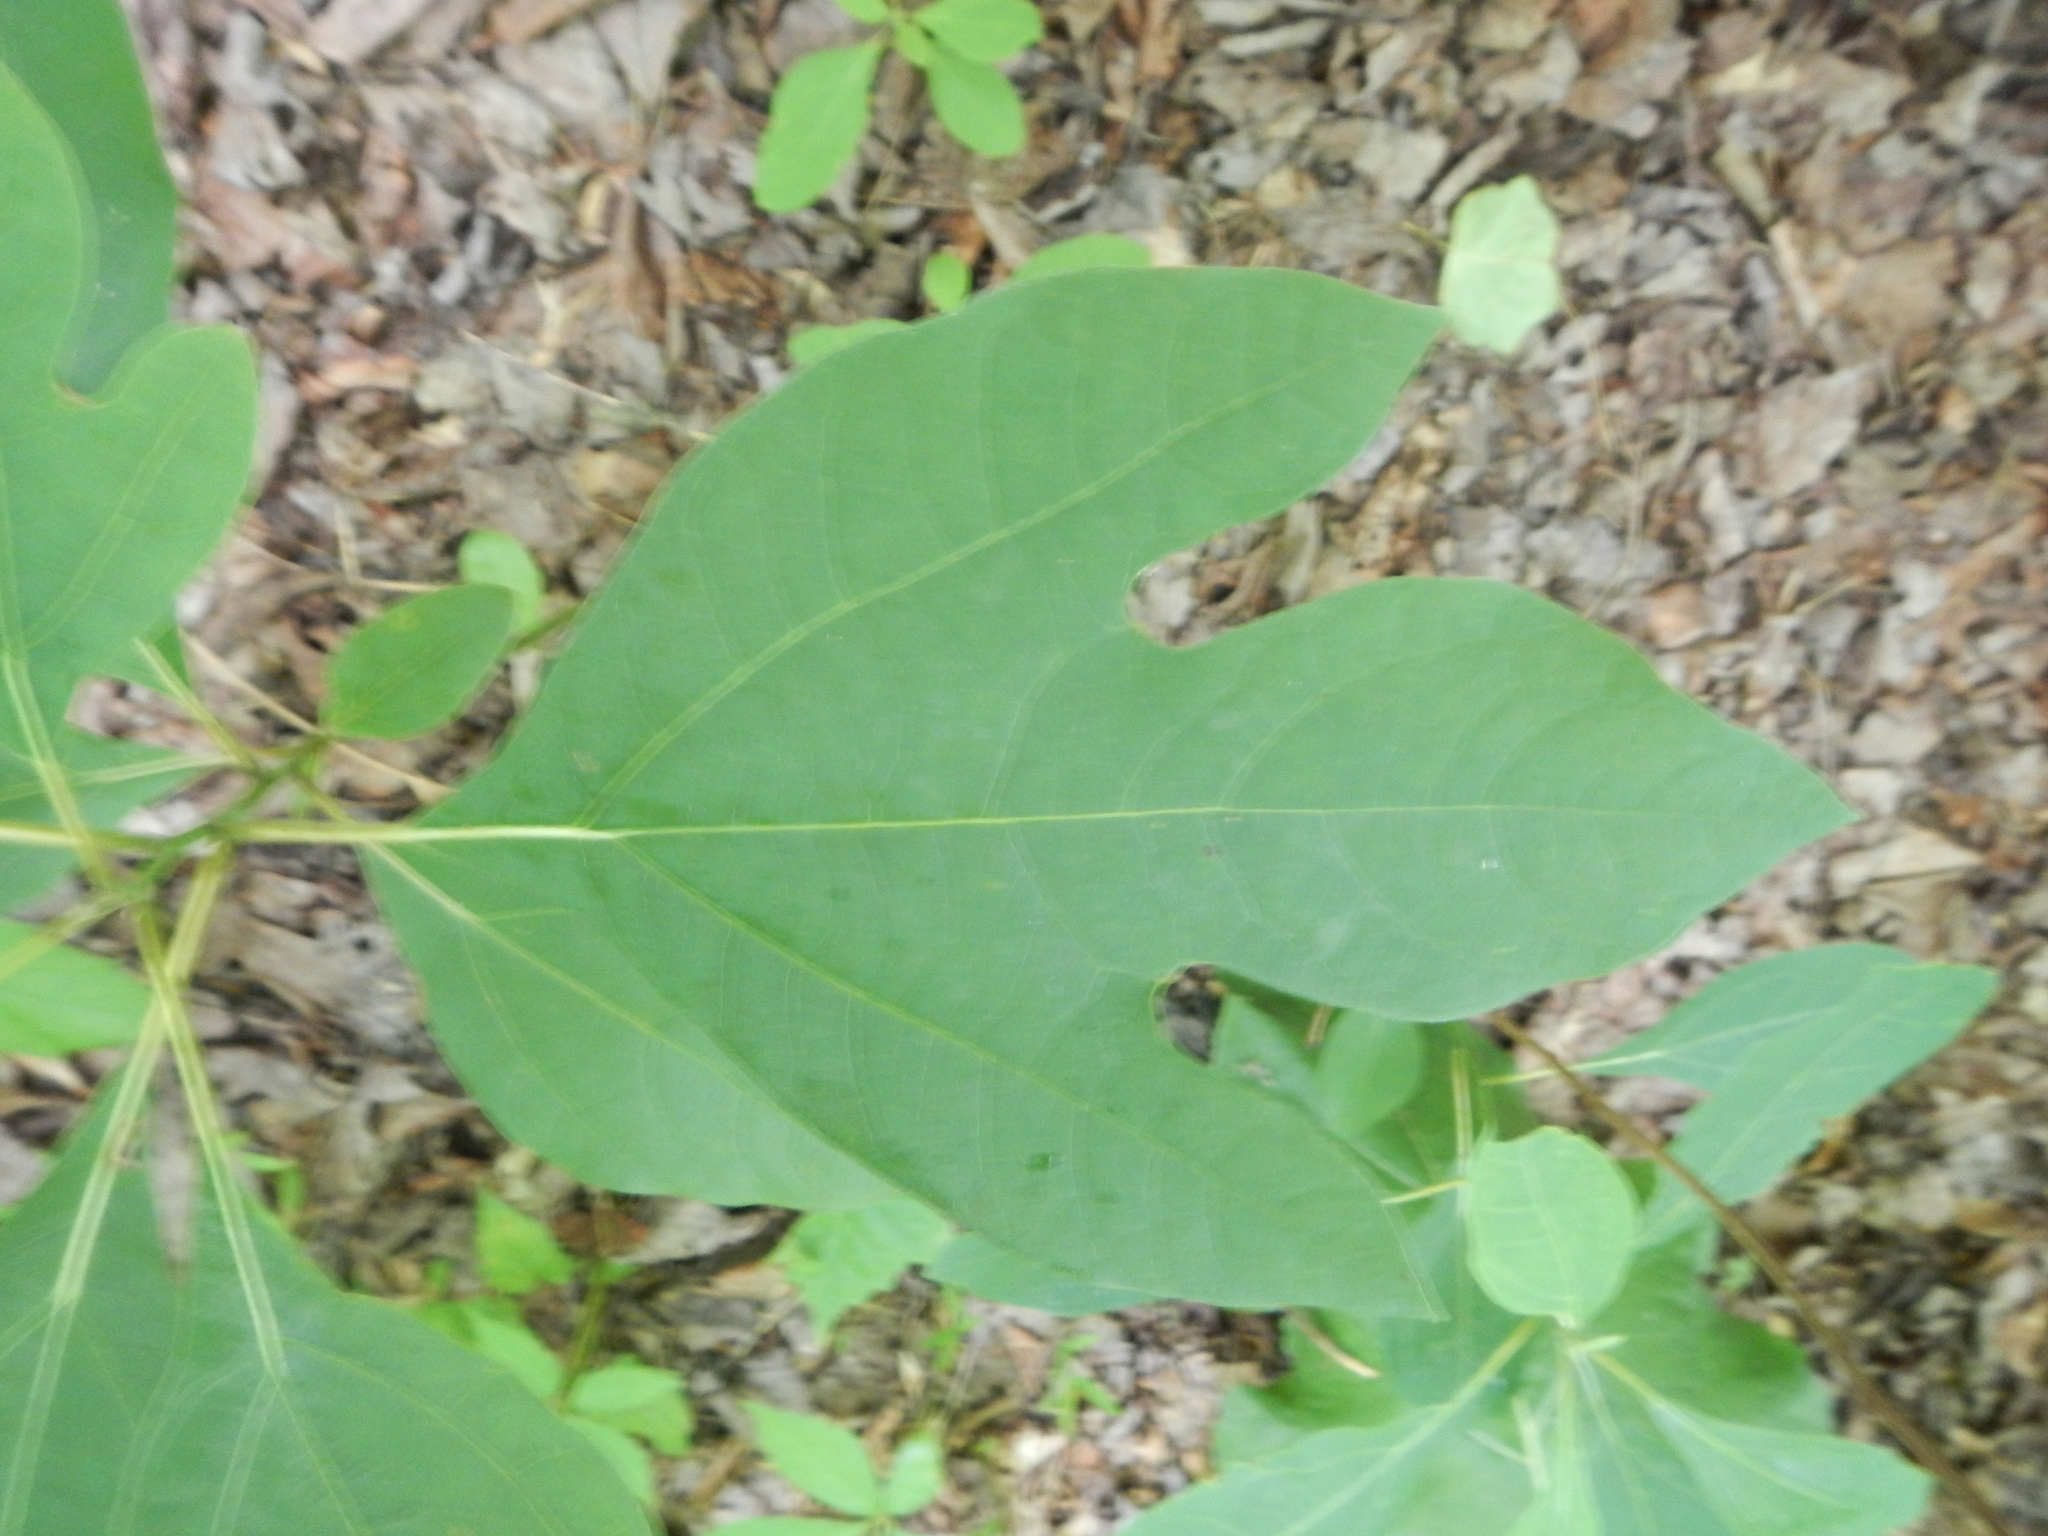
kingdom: Plantae
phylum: Tracheophyta
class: Magnoliopsida
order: Laurales
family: Lauraceae
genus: Sassafras
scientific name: Sassafras albidum
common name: Sassafras
